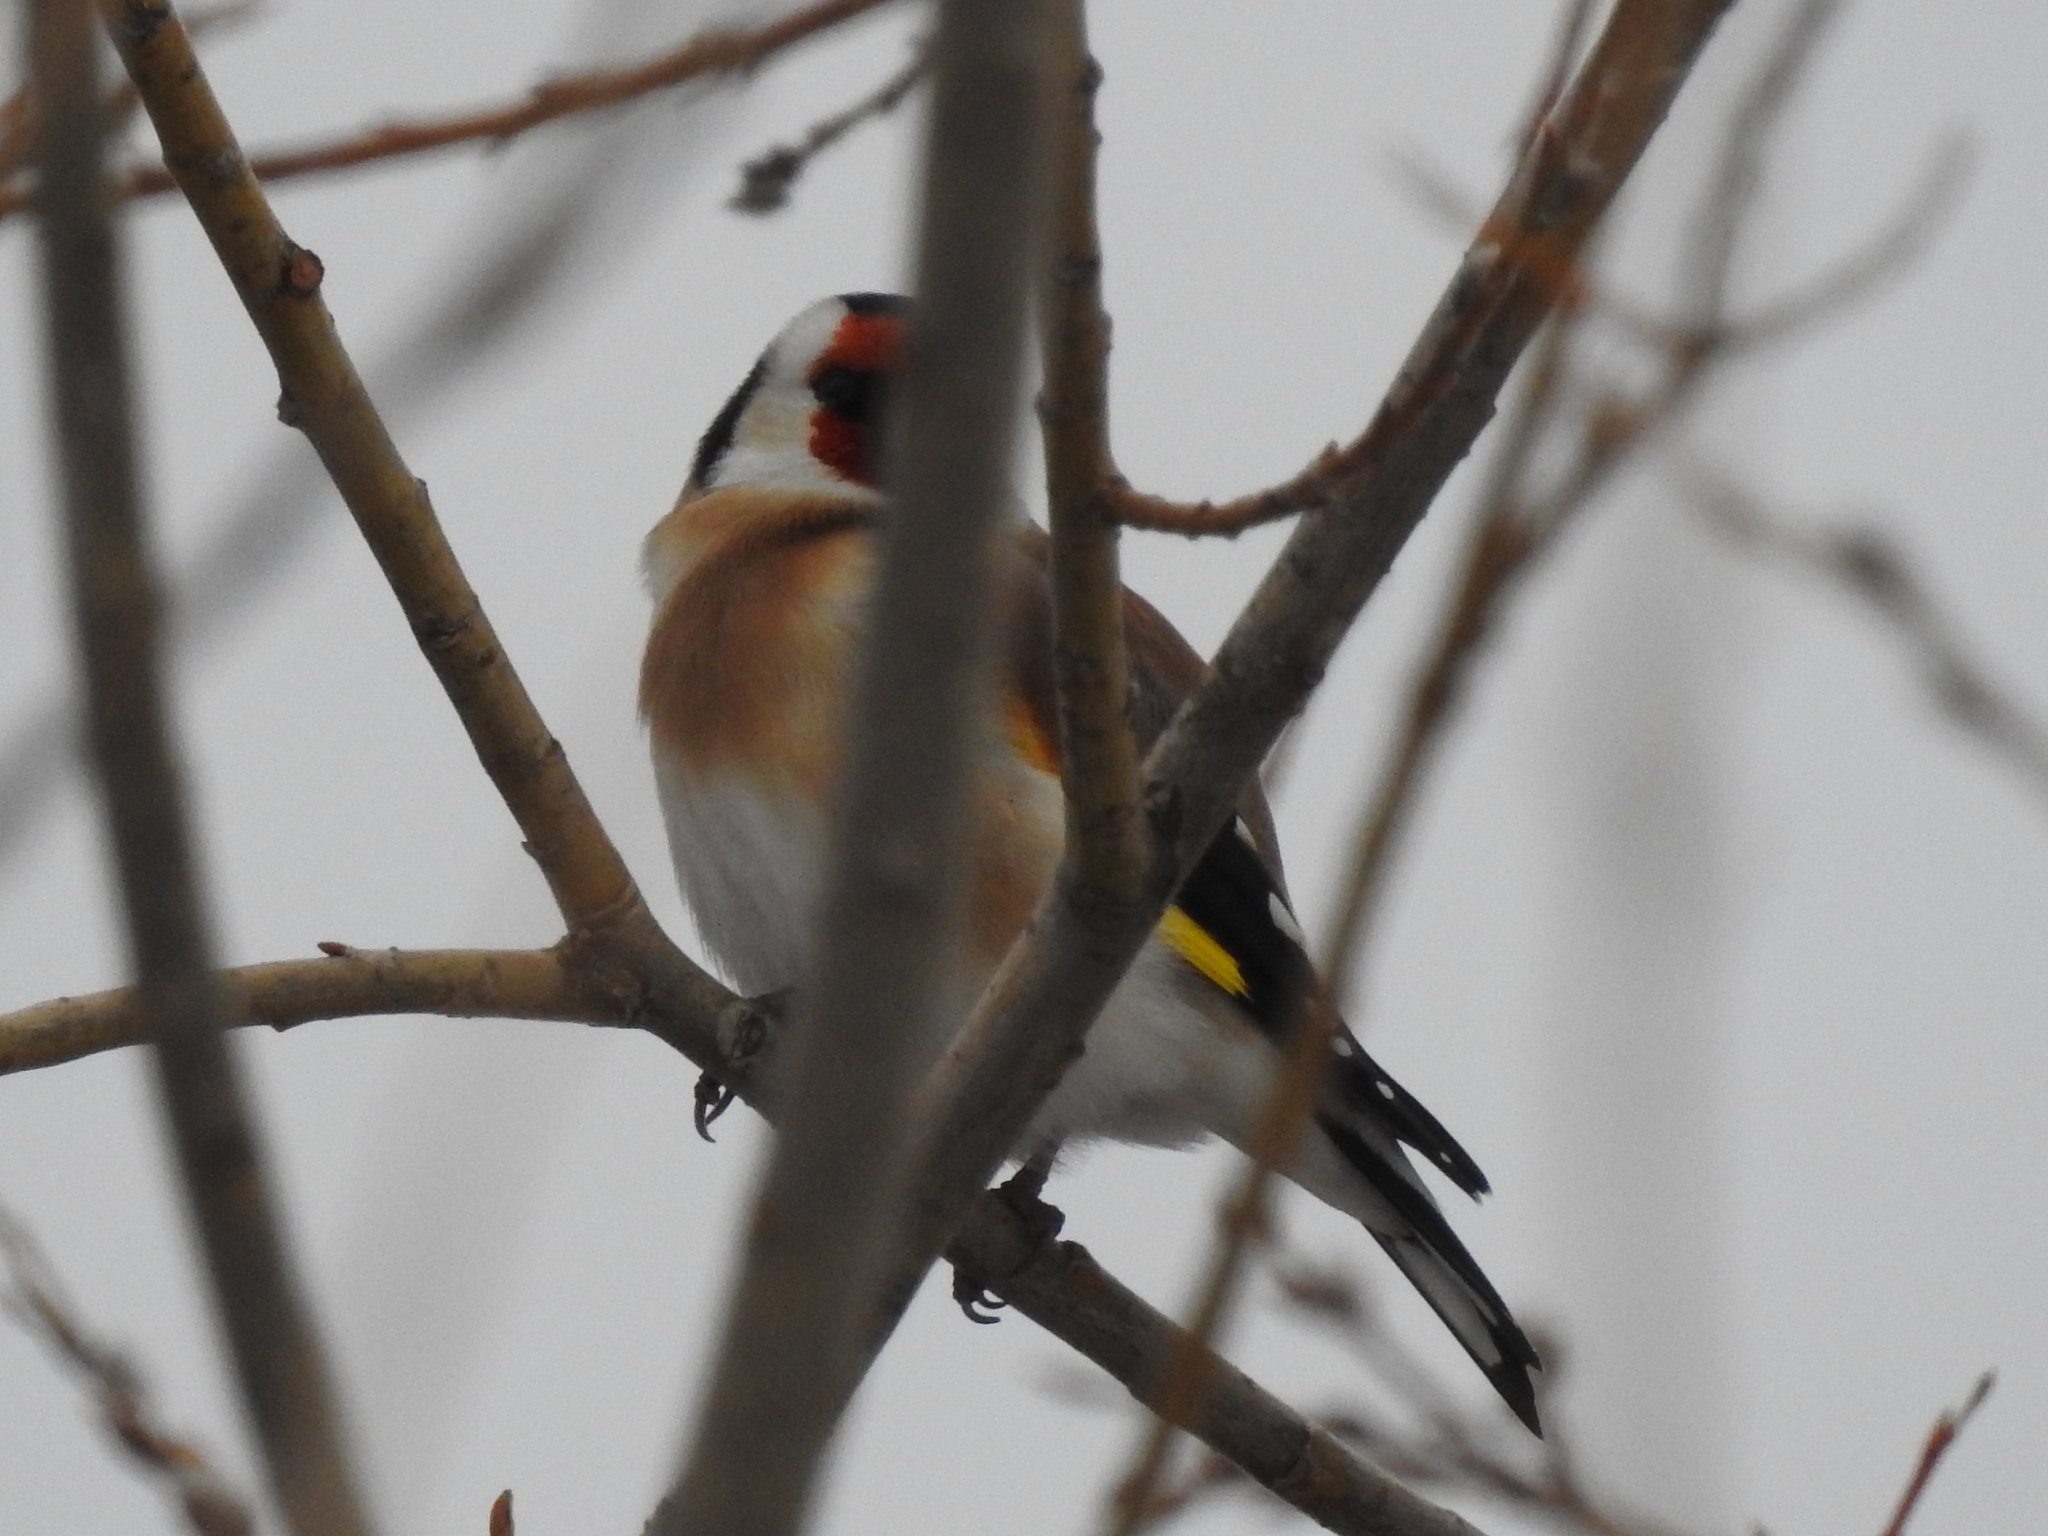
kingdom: Animalia
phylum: Chordata
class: Aves
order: Passeriformes
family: Fringillidae
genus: Carduelis
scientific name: Carduelis carduelis
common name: European goldfinch
